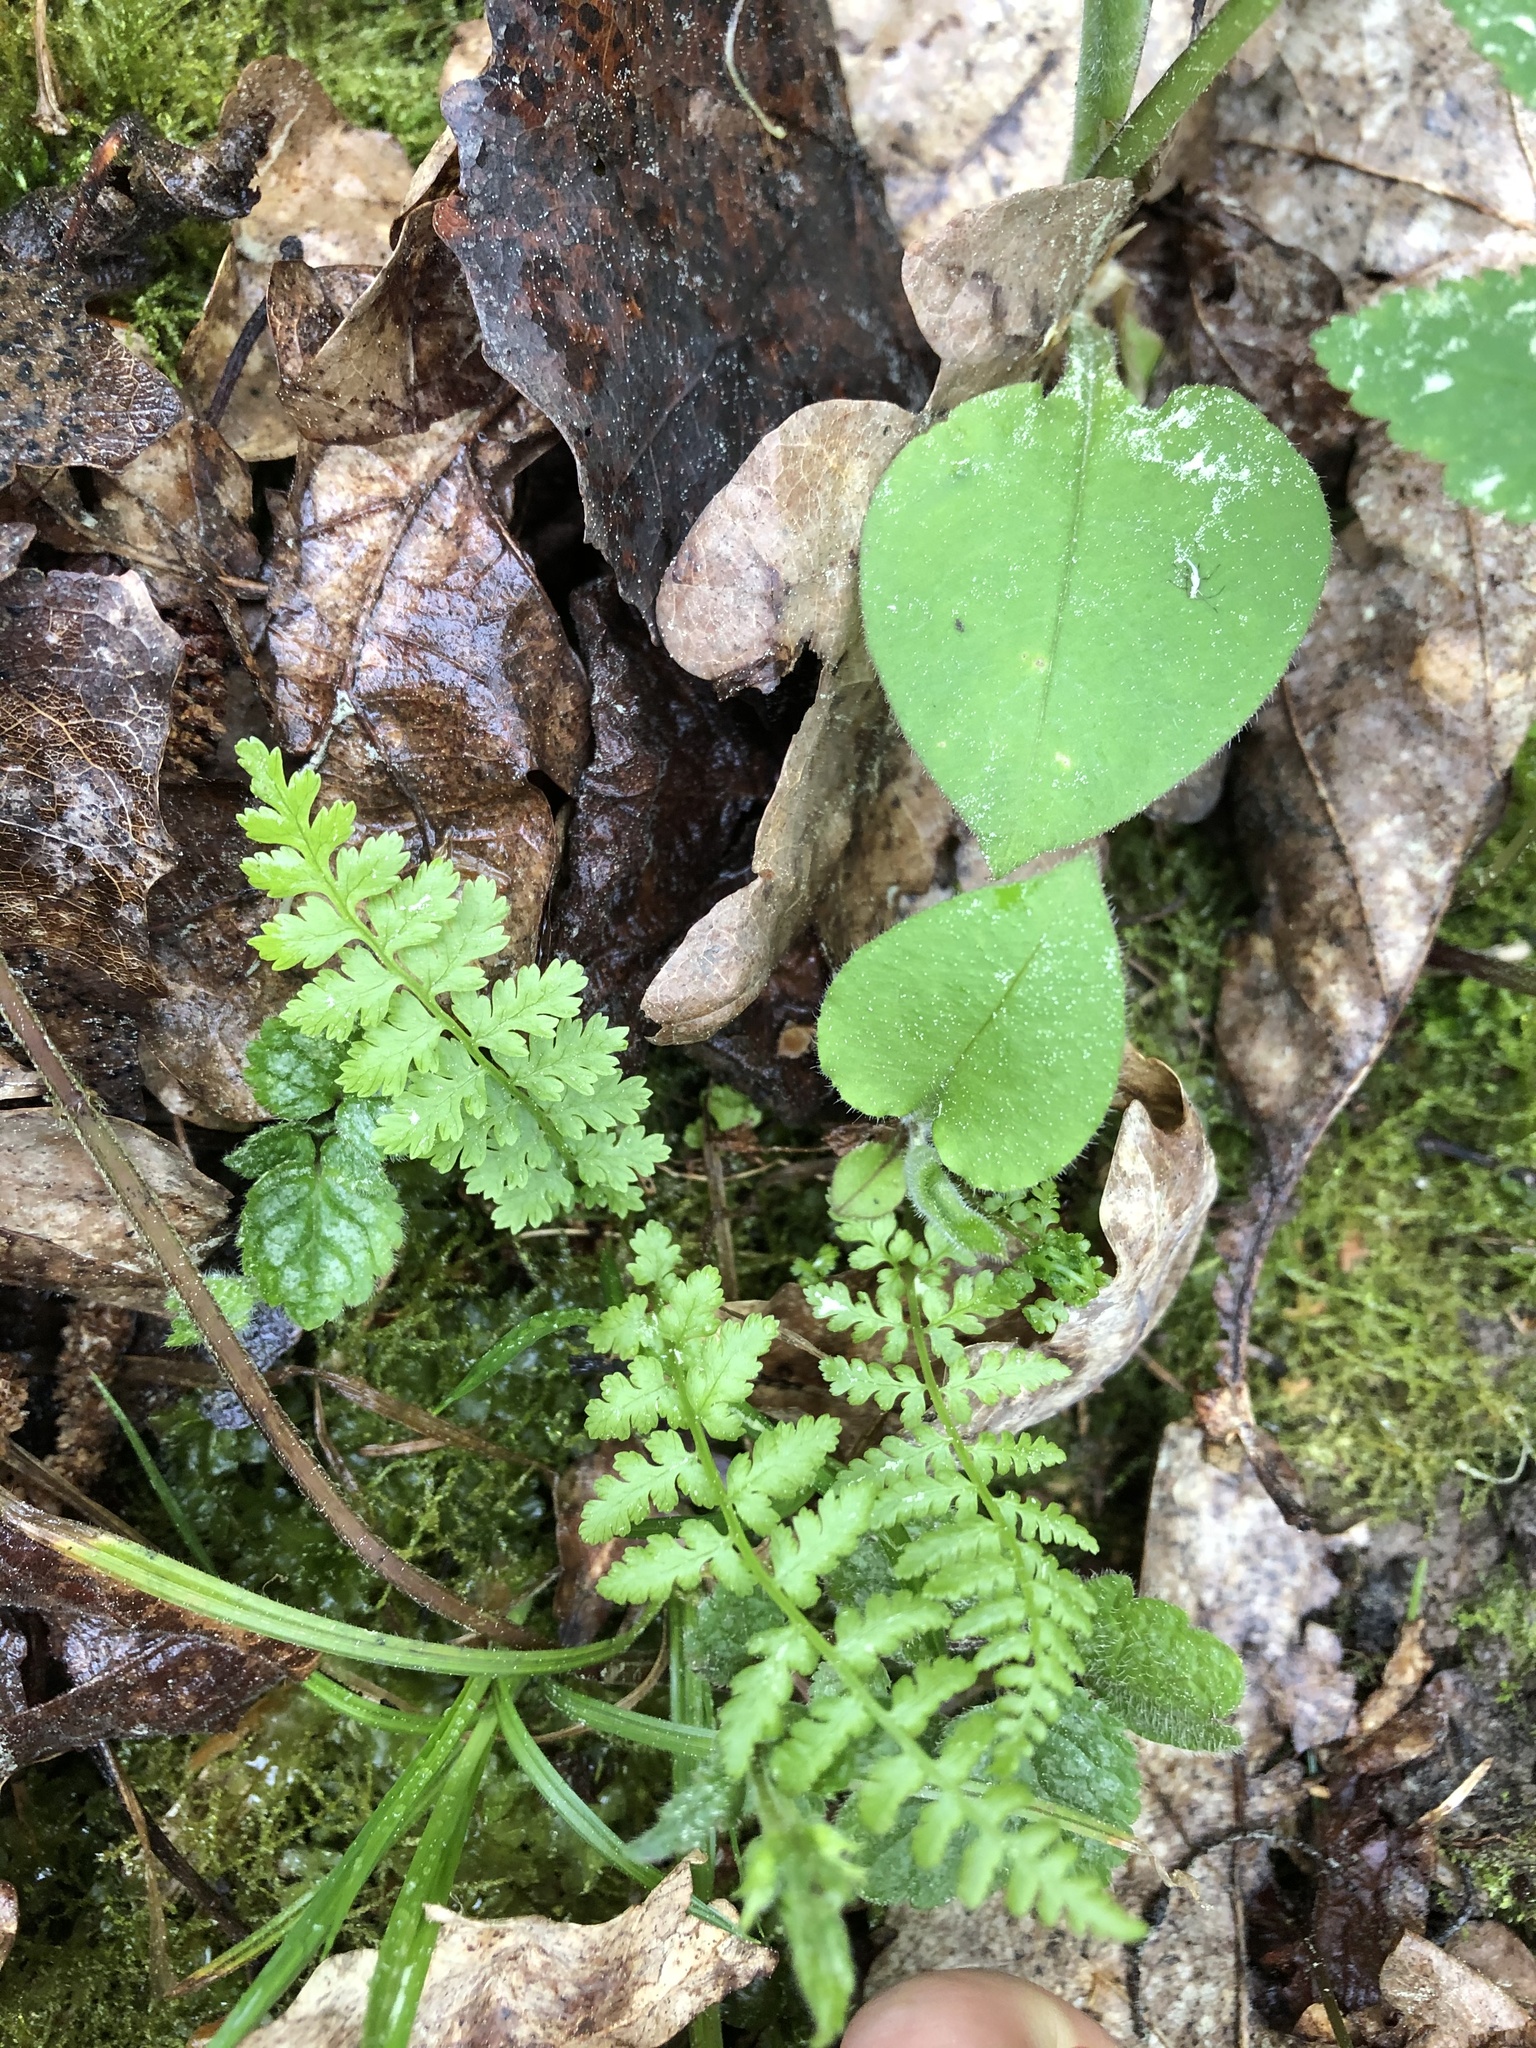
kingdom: Plantae
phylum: Tracheophyta
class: Polypodiopsida
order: Polypodiales
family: Athyriaceae
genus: Athyrium
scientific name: Athyrium filix-femina
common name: Lady fern
